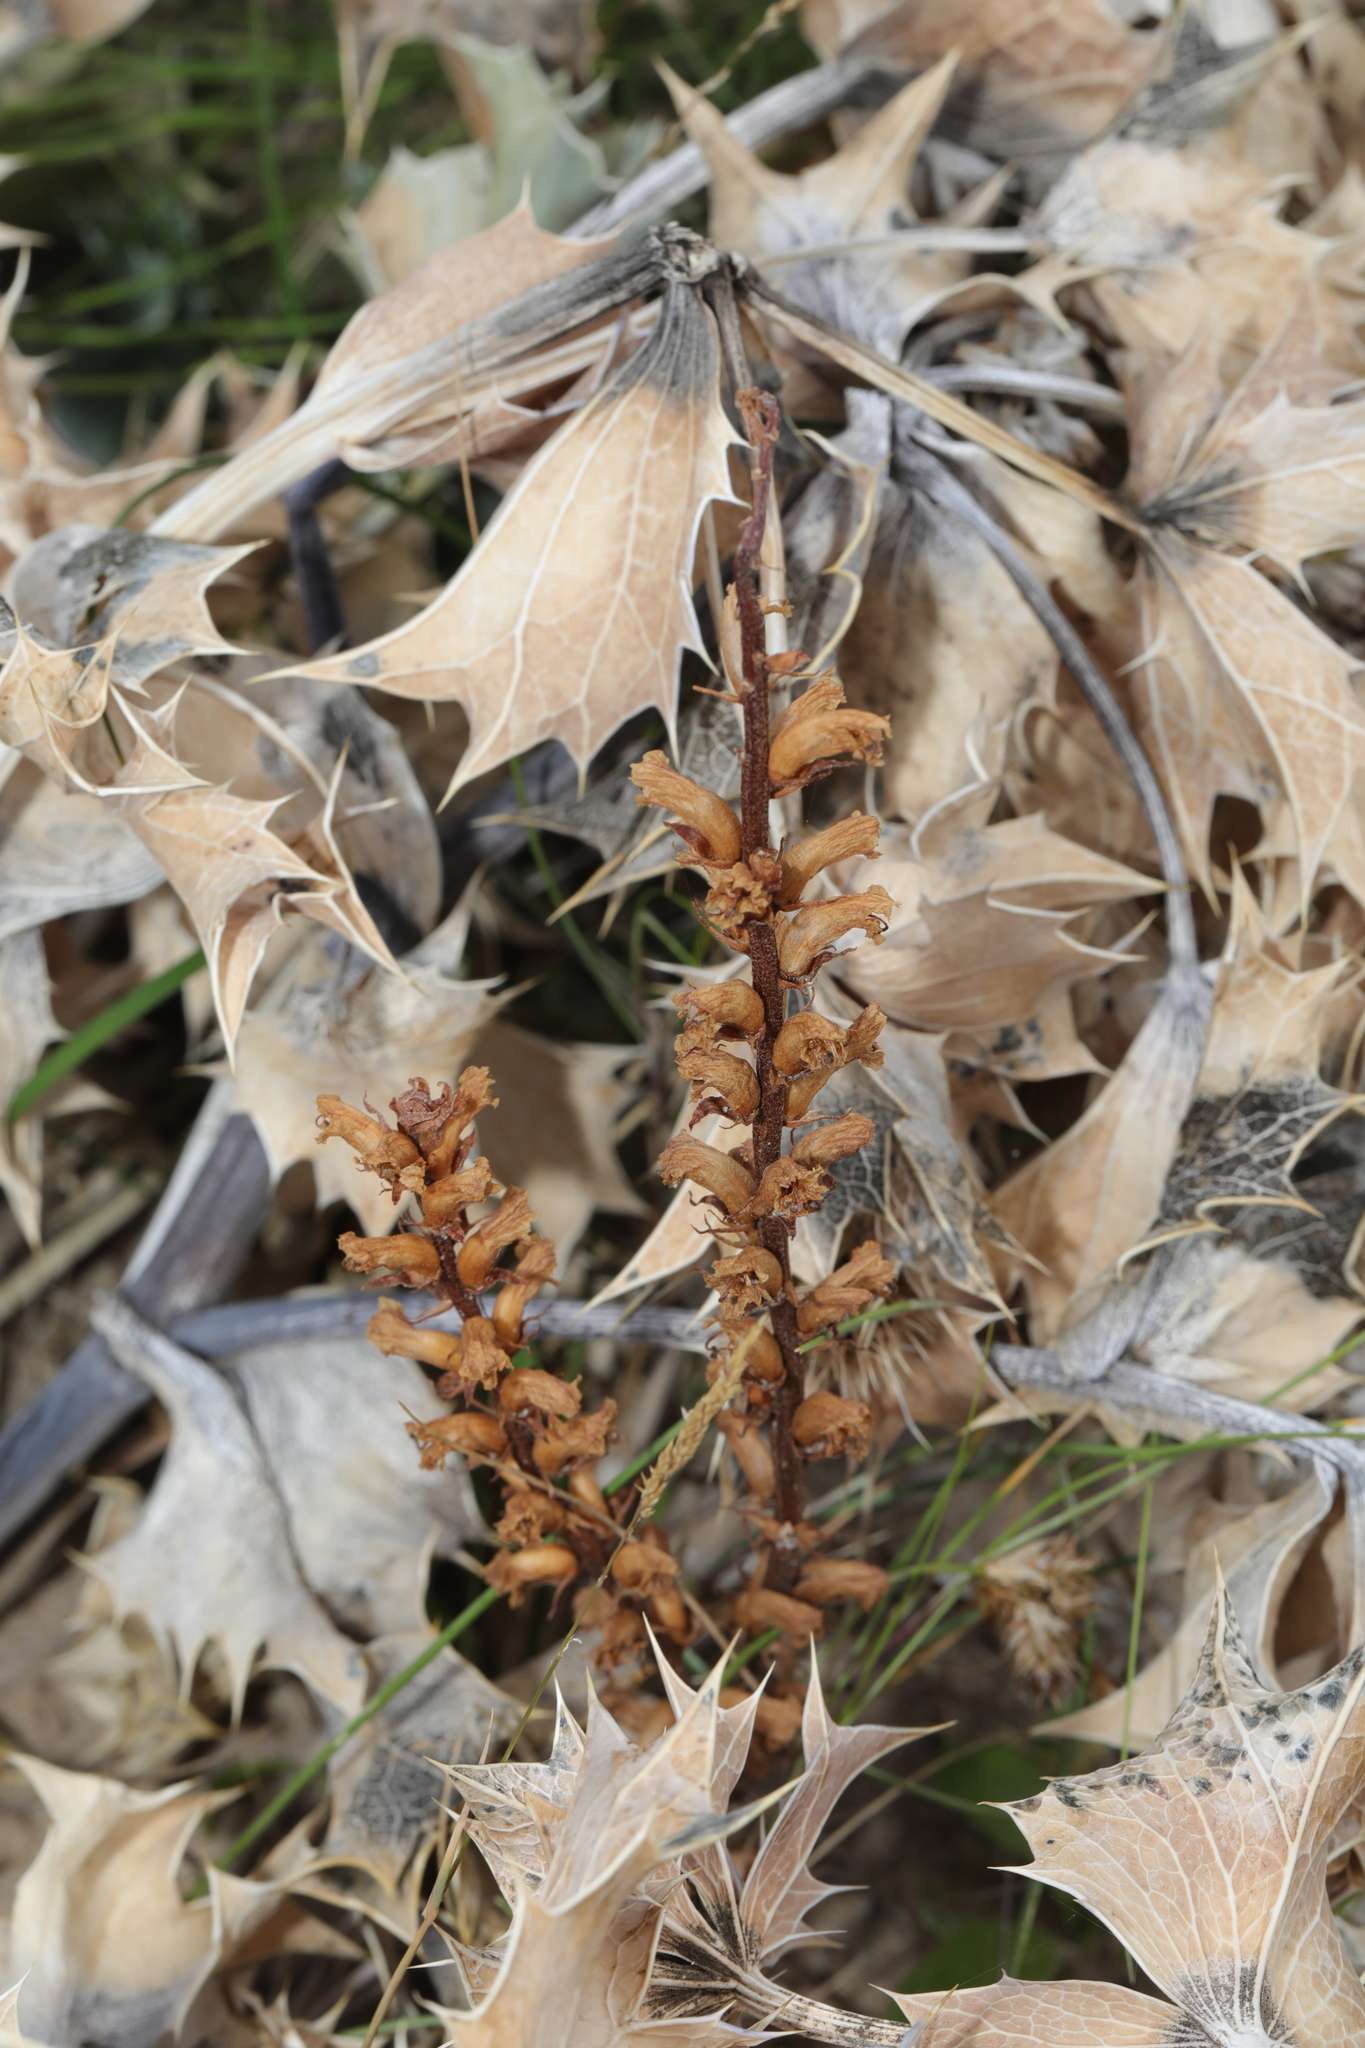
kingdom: Plantae
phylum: Tracheophyta
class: Magnoliopsida
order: Lamiales
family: Orobanchaceae
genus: Orobanche
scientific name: Orobanche minor
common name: Common broomrape
